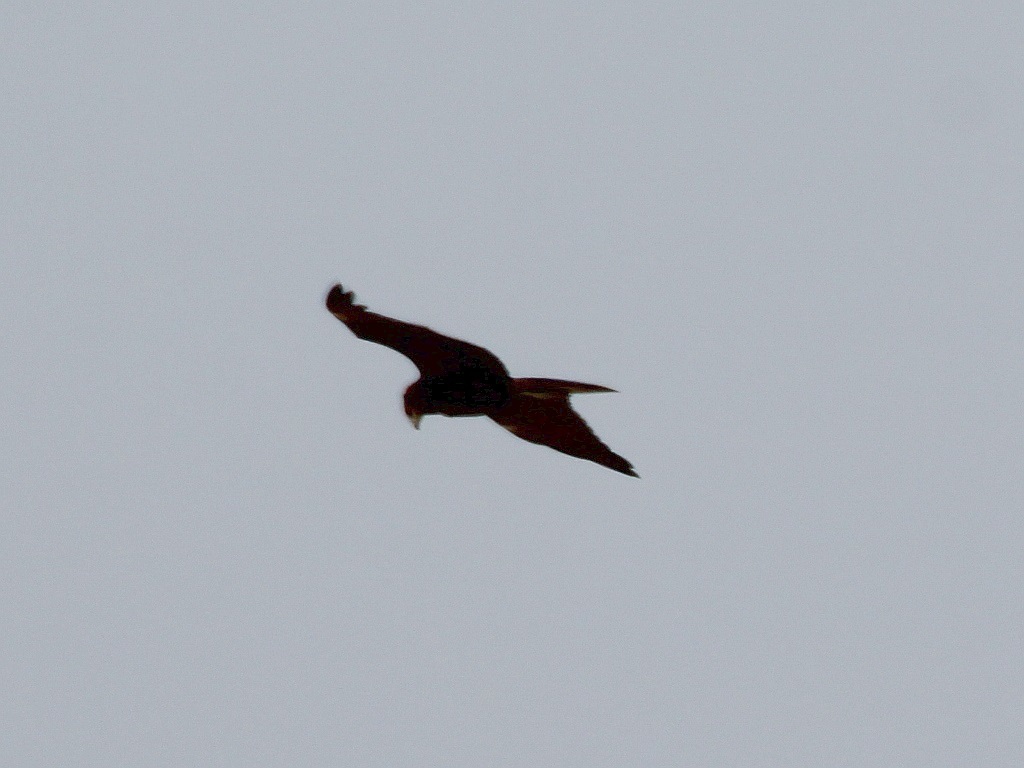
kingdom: Animalia
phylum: Chordata
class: Aves
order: Accipitriformes
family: Accipitridae
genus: Circus
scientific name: Circus aeruginosus
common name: Western marsh harrier
